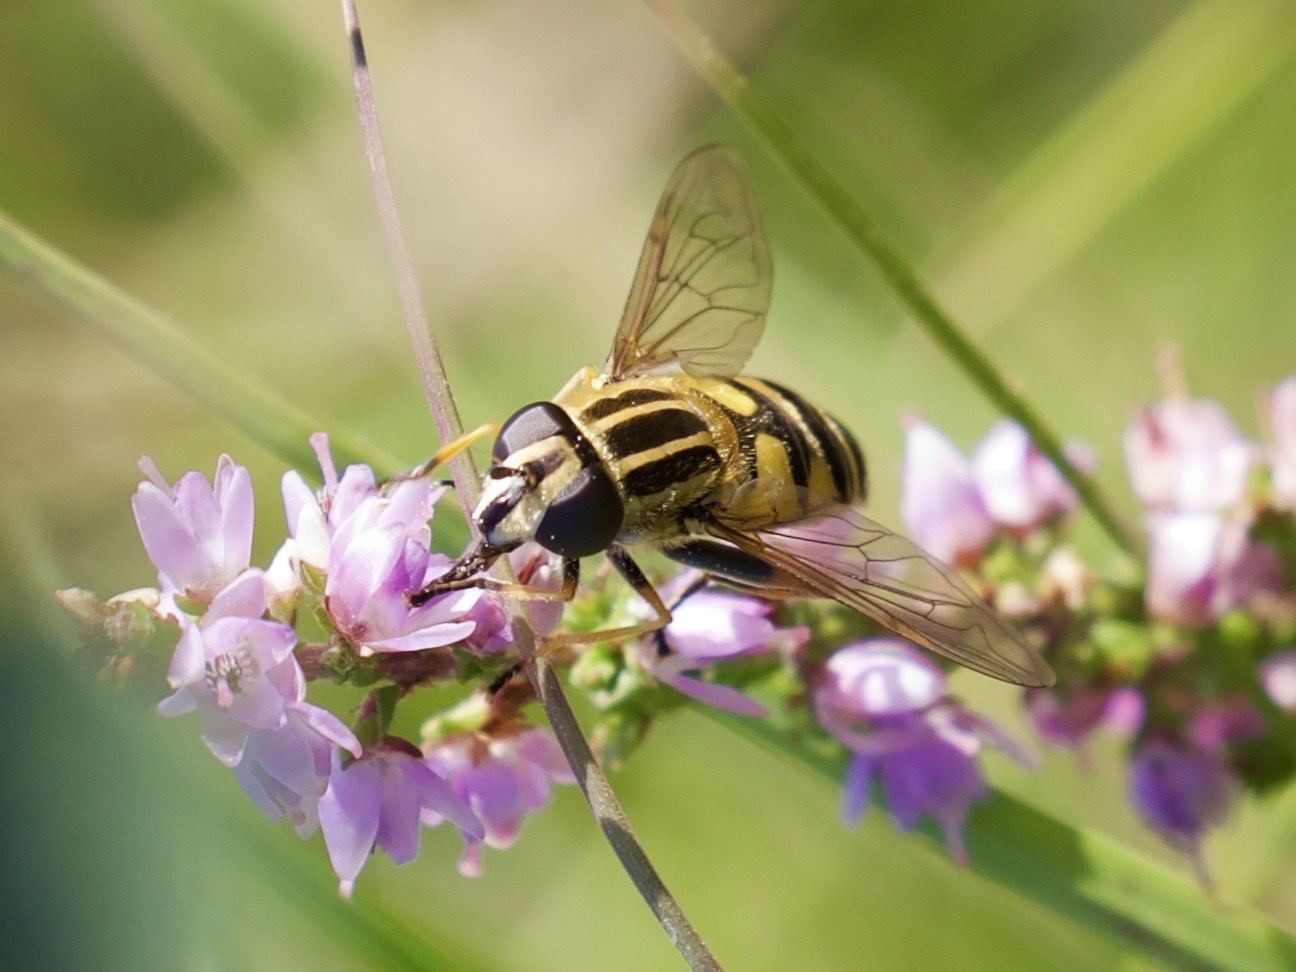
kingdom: Animalia
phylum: Arthropoda
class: Insecta
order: Diptera
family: Syrphidae
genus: Helophilus
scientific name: Helophilus pendulus
